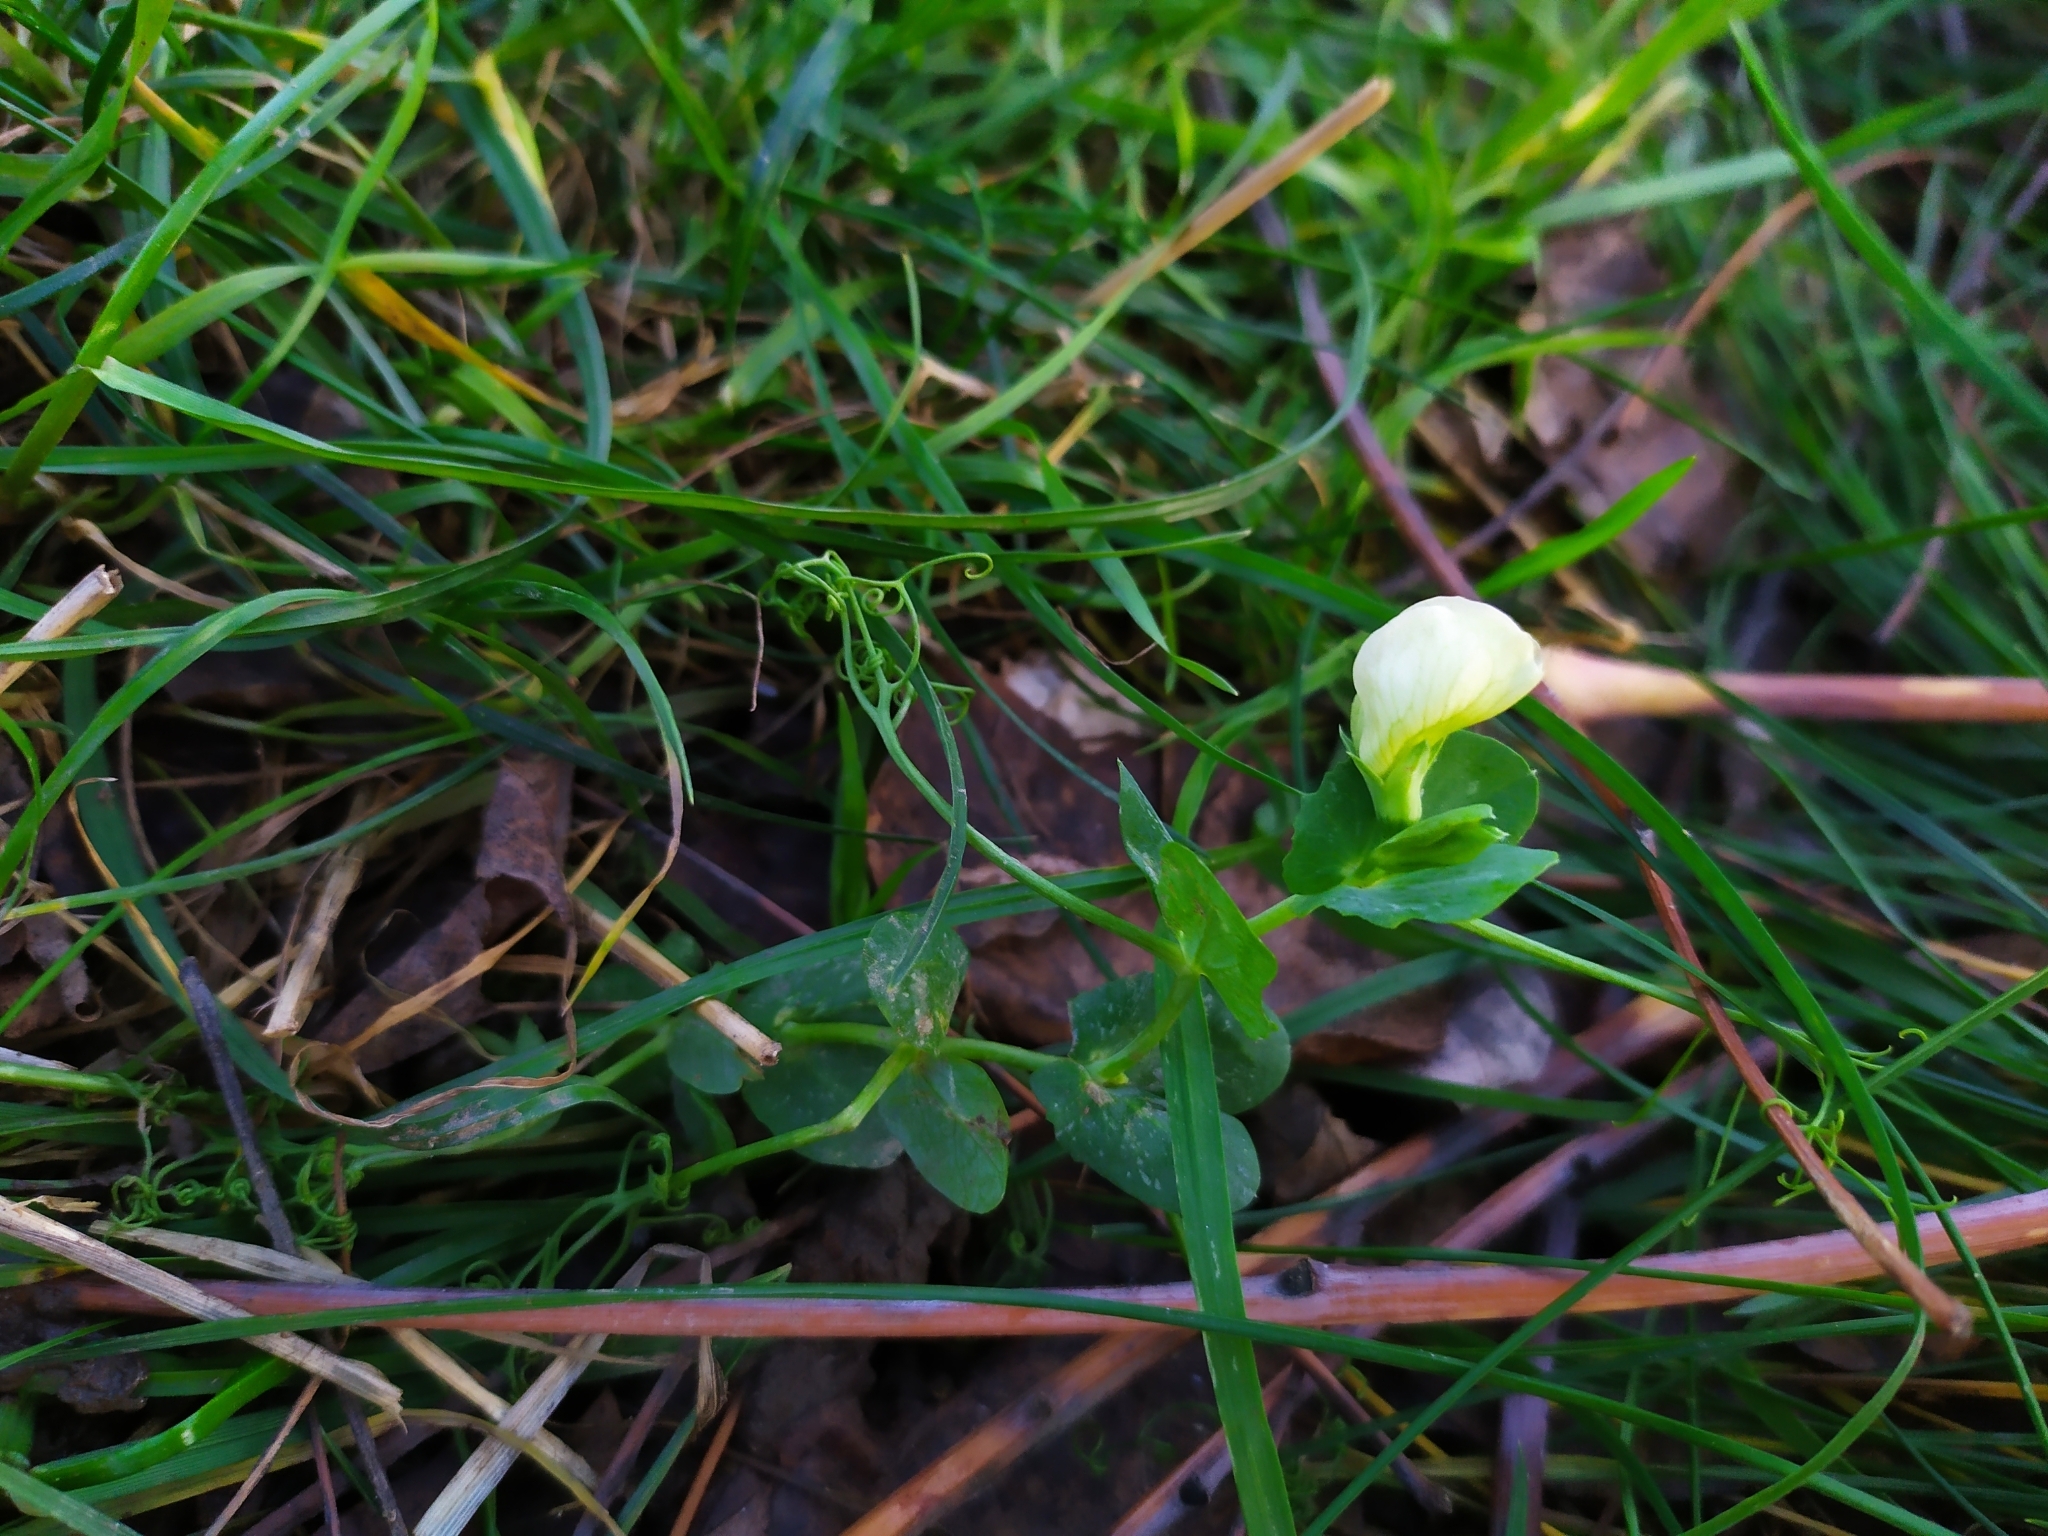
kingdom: Plantae
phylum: Tracheophyta
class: Magnoliopsida
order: Fabales
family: Fabaceae
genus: Lathyrus
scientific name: Lathyrus oleraceus
